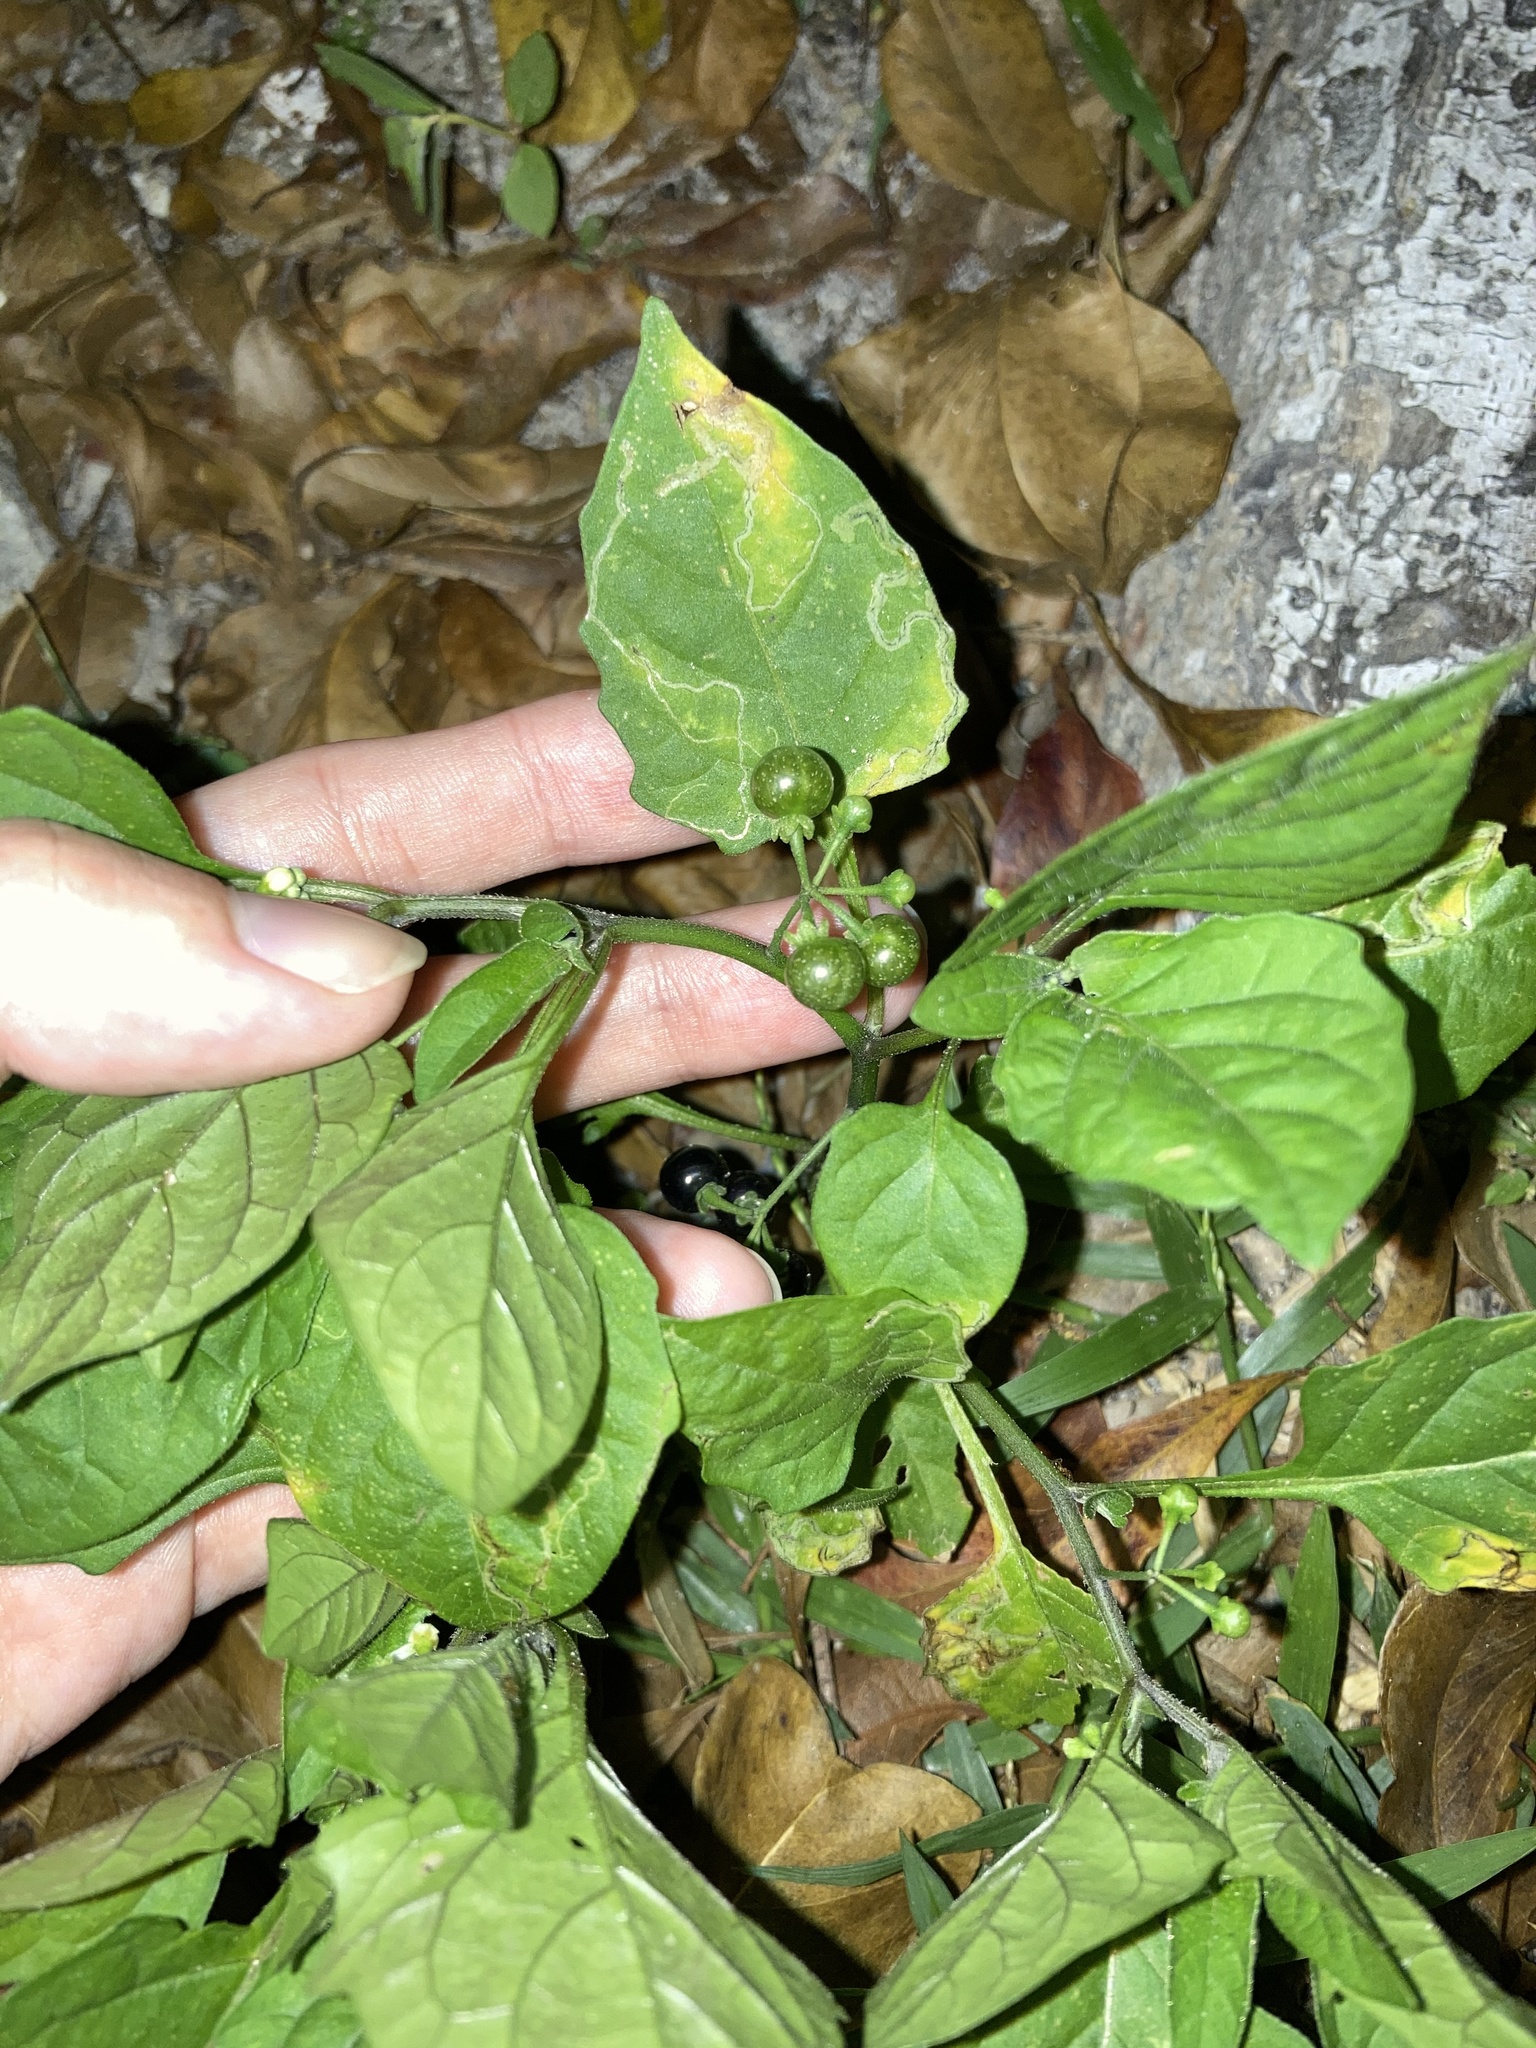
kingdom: Plantae
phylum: Tracheophyta
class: Magnoliopsida
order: Solanales
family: Solanaceae
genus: Solanum
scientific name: Solanum americanum
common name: American black nightshade
